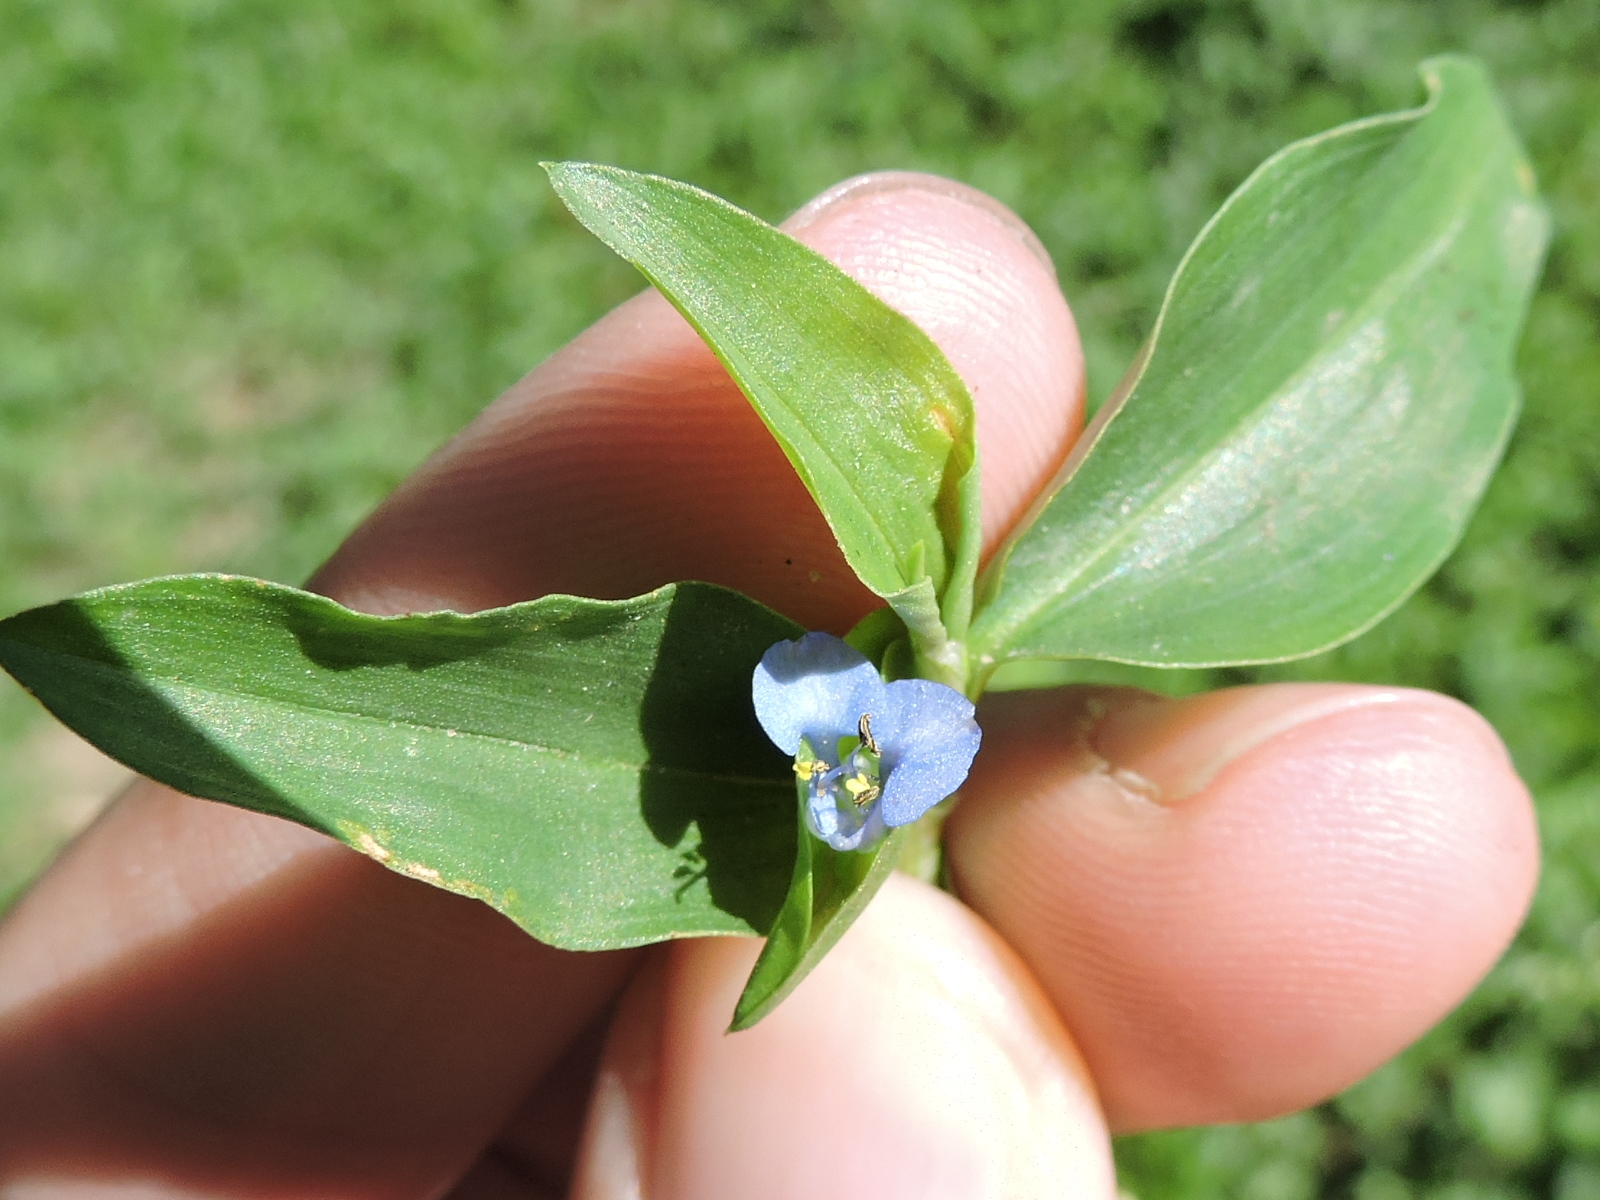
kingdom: Plantae
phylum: Tracheophyta
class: Liliopsida
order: Commelinales
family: Commelinaceae
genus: Commelina
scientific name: Commelina diffusa
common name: Climbing dayflower
